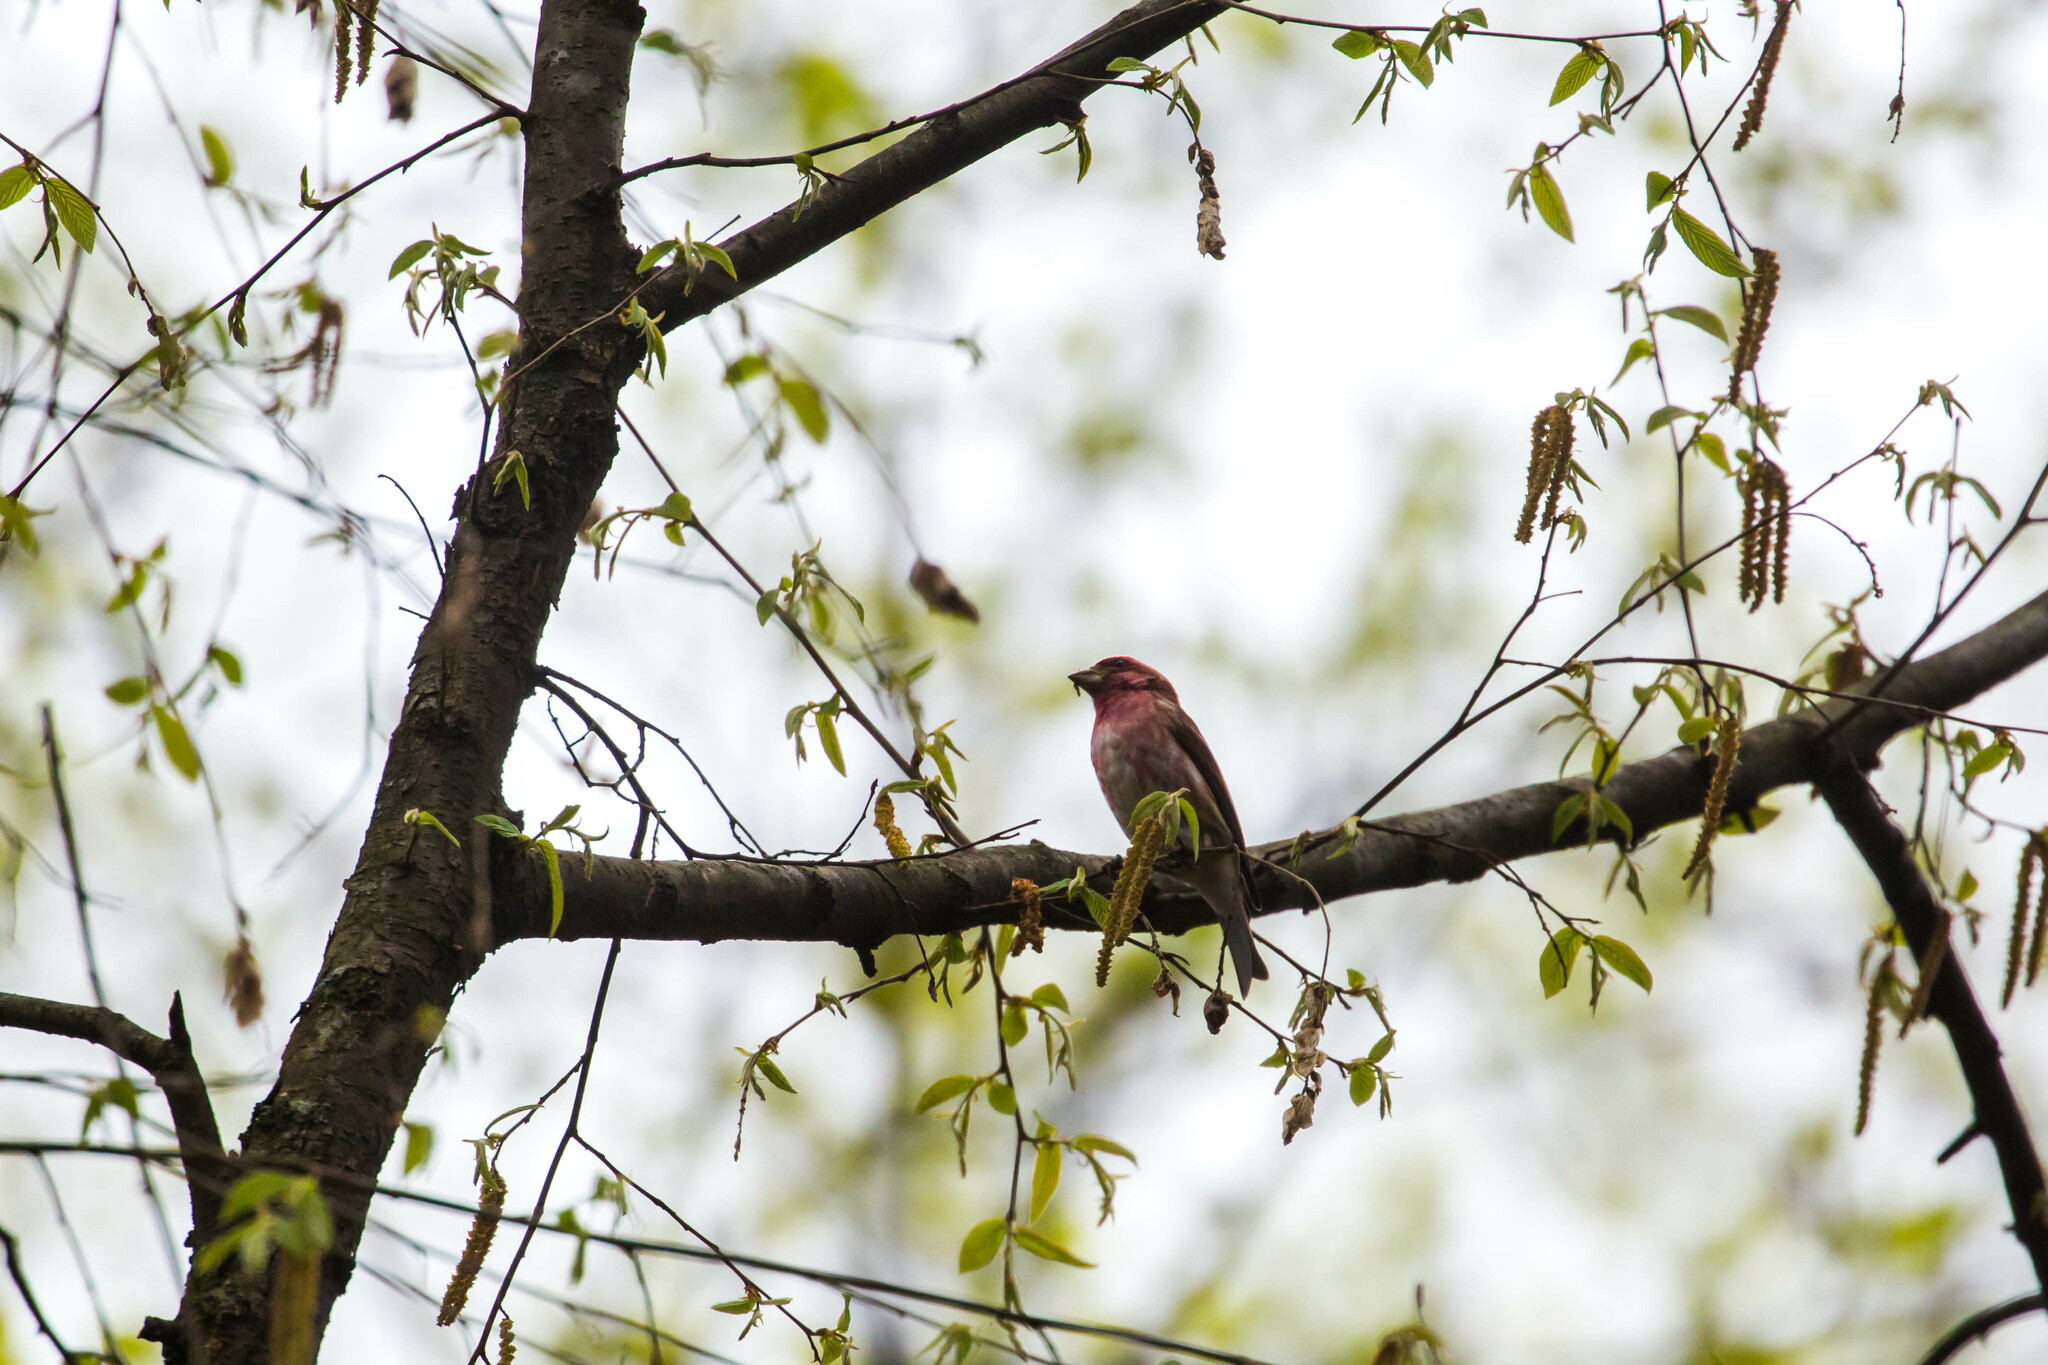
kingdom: Animalia
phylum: Chordata
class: Aves
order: Passeriformes
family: Fringillidae
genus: Haemorhous
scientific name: Haemorhous purpureus
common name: Purple finch
